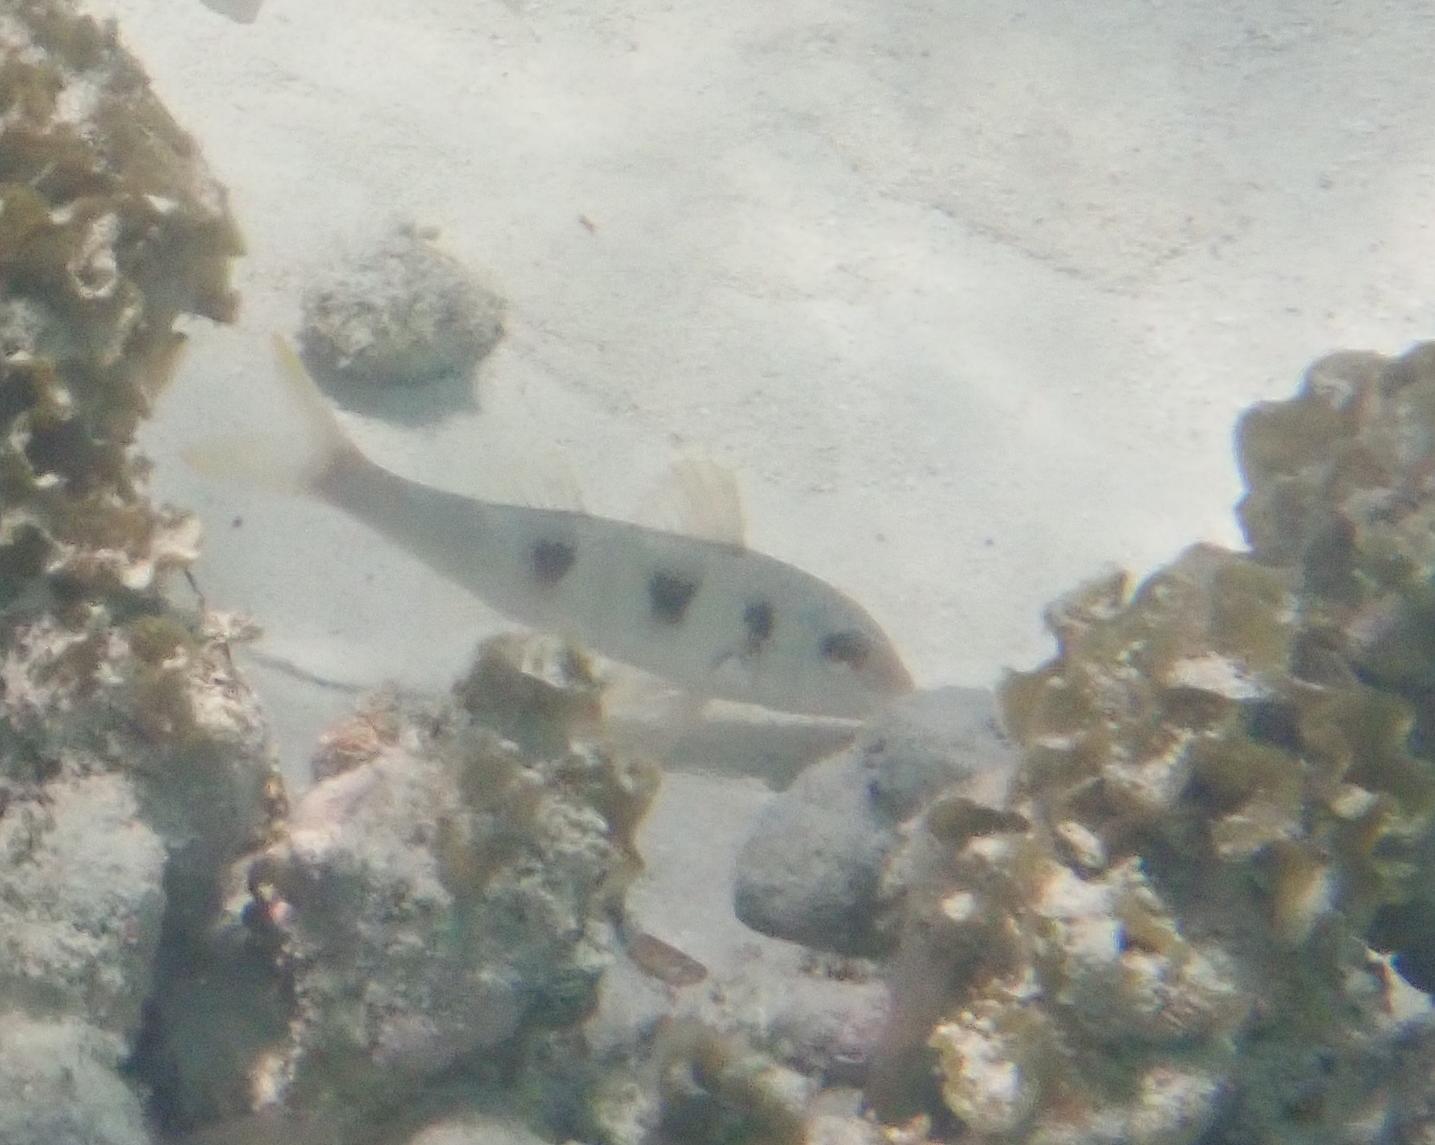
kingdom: Animalia
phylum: Chordata
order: Perciformes
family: Mullidae
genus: Pseudupeneus
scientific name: Pseudupeneus maculatus
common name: Spotted goatfish
